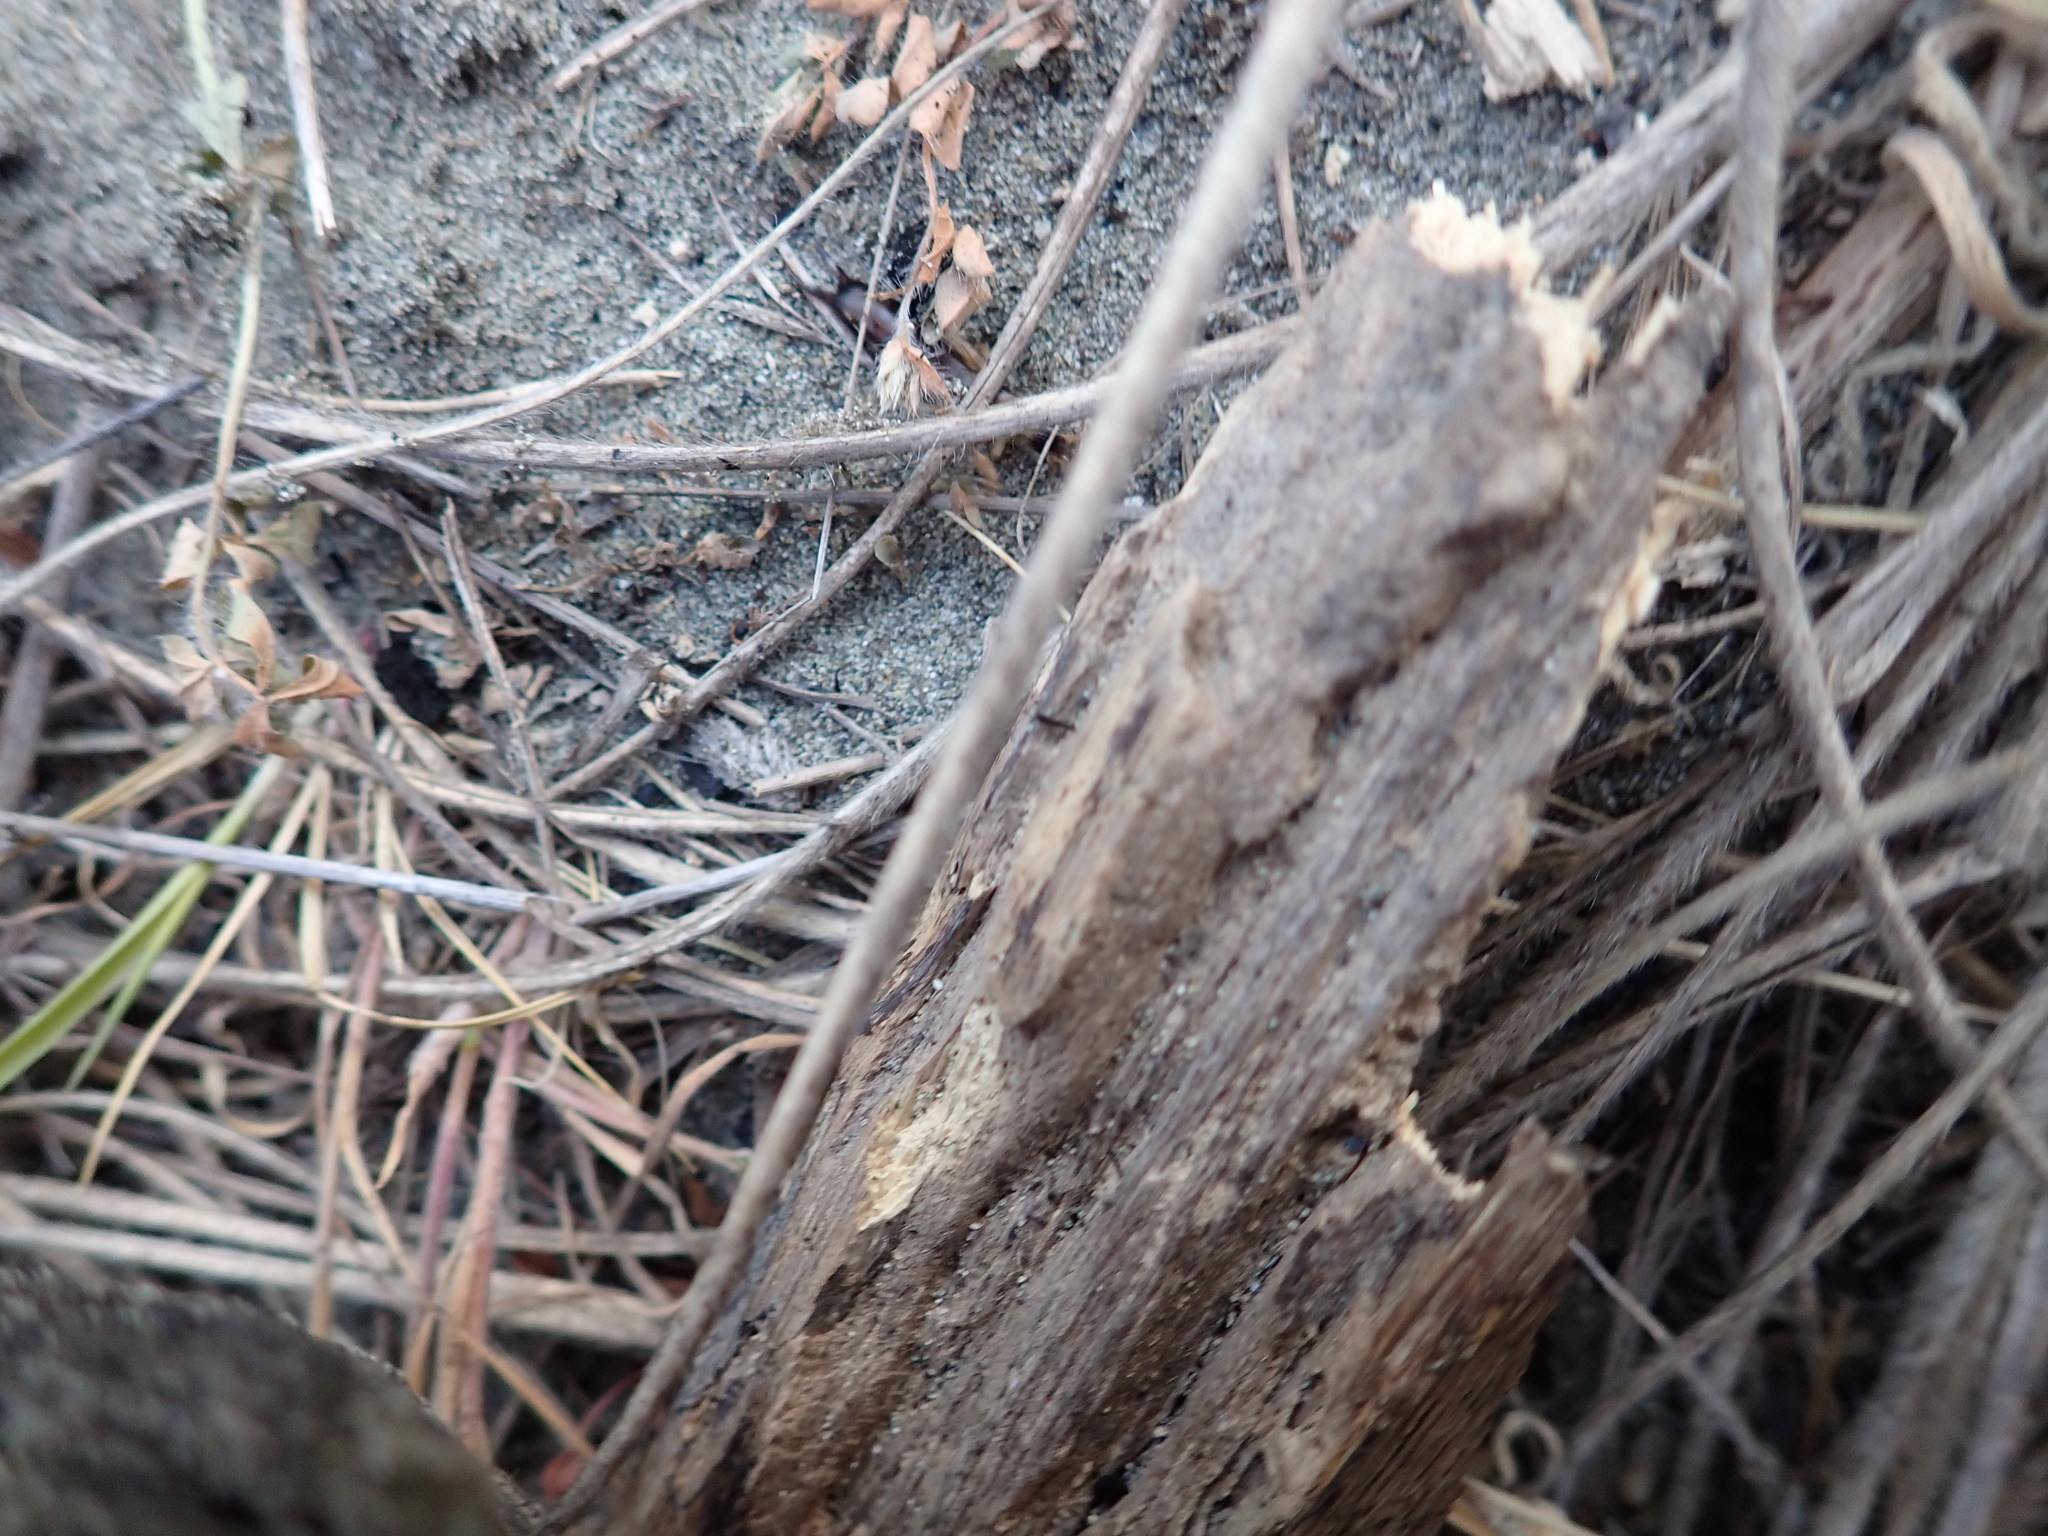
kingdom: Animalia
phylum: Arthropoda
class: Insecta
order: Dermaptera
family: Anisolabididae
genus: Anisolabis
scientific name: Anisolabis littorea
